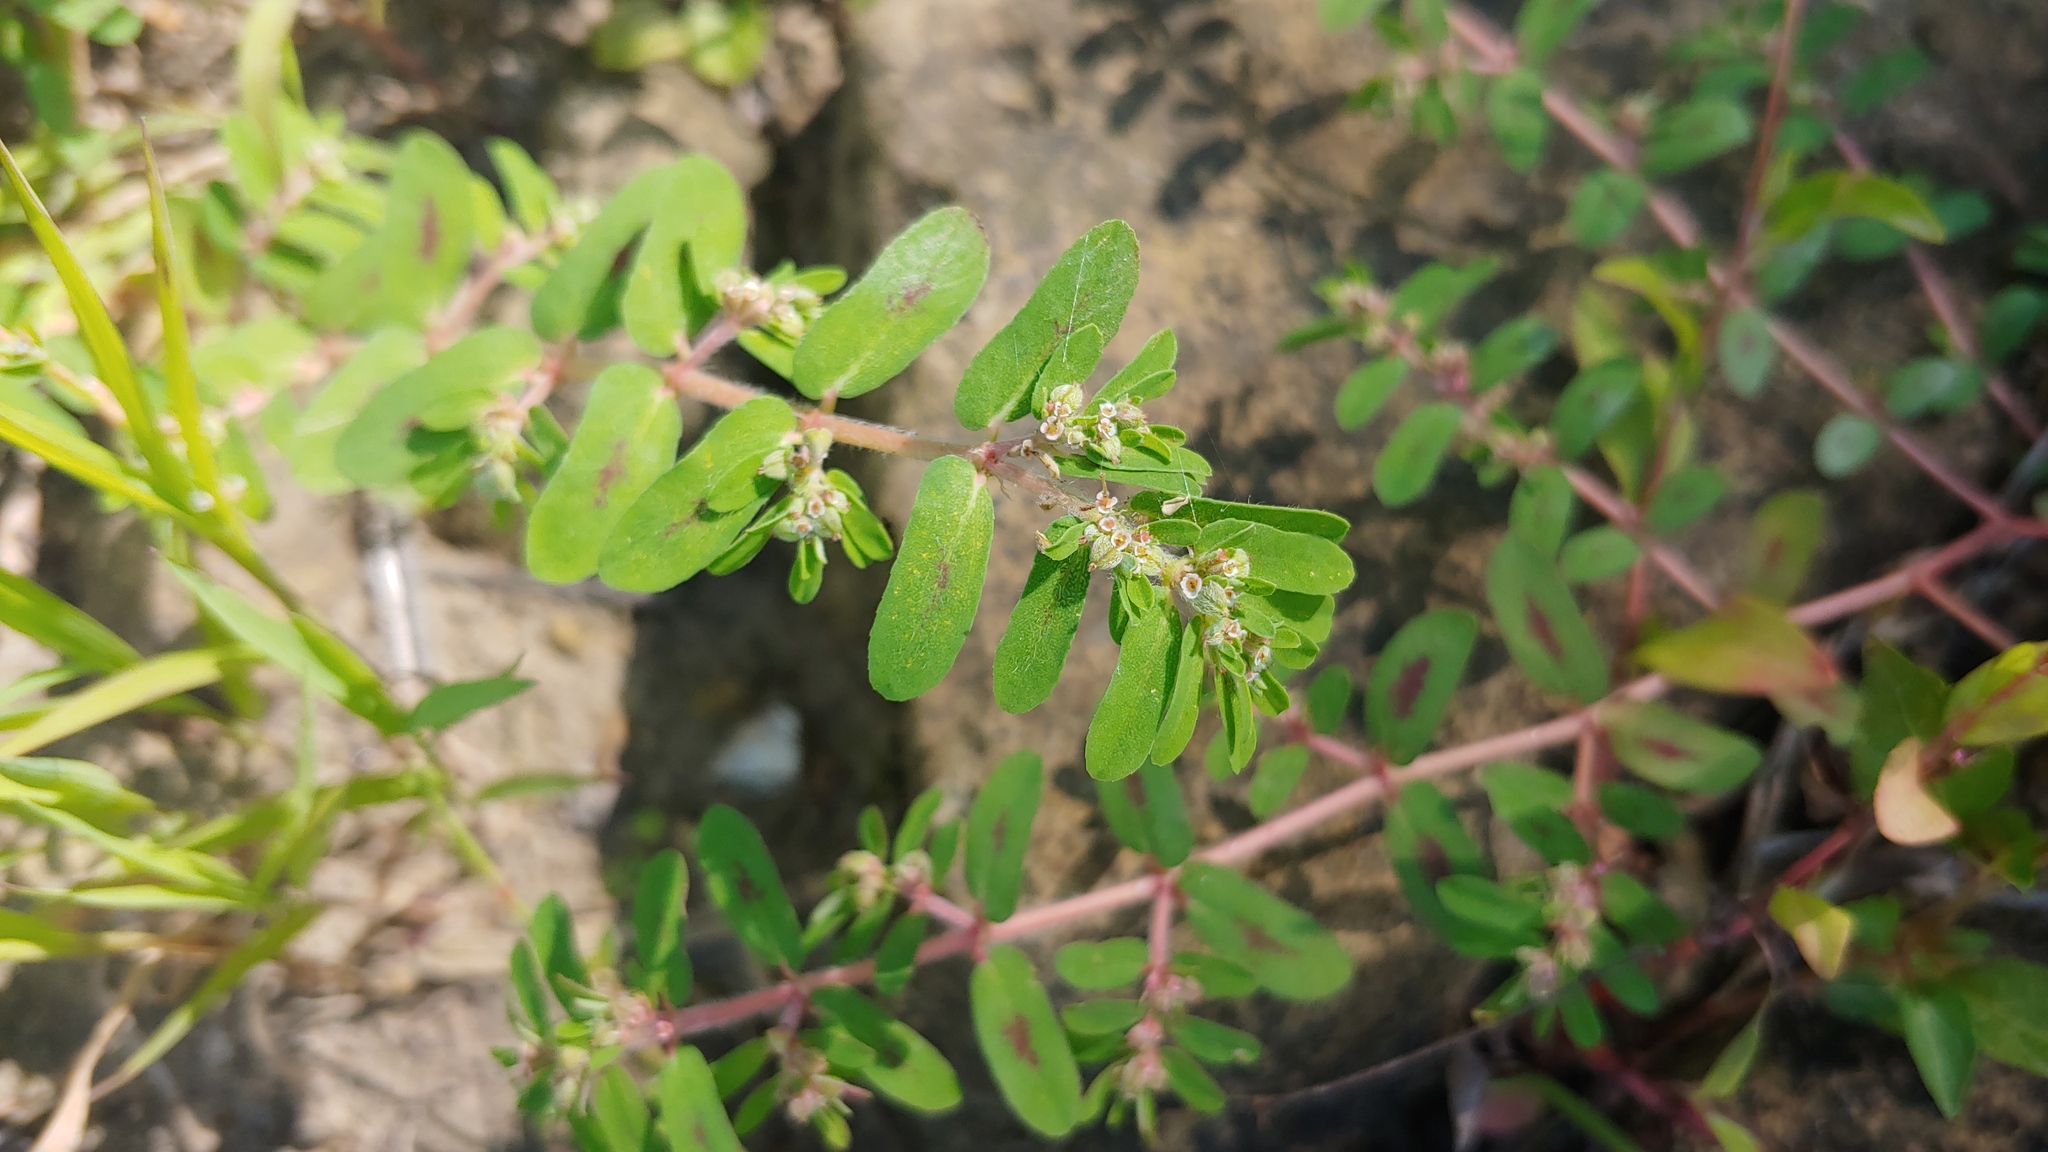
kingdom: Plantae
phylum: Tracheophyta
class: Magnoliopsida
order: Malpighiales
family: Euphorbiaceae
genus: Euphorbia
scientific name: Euphorbia maculata
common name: Spotted spurge
